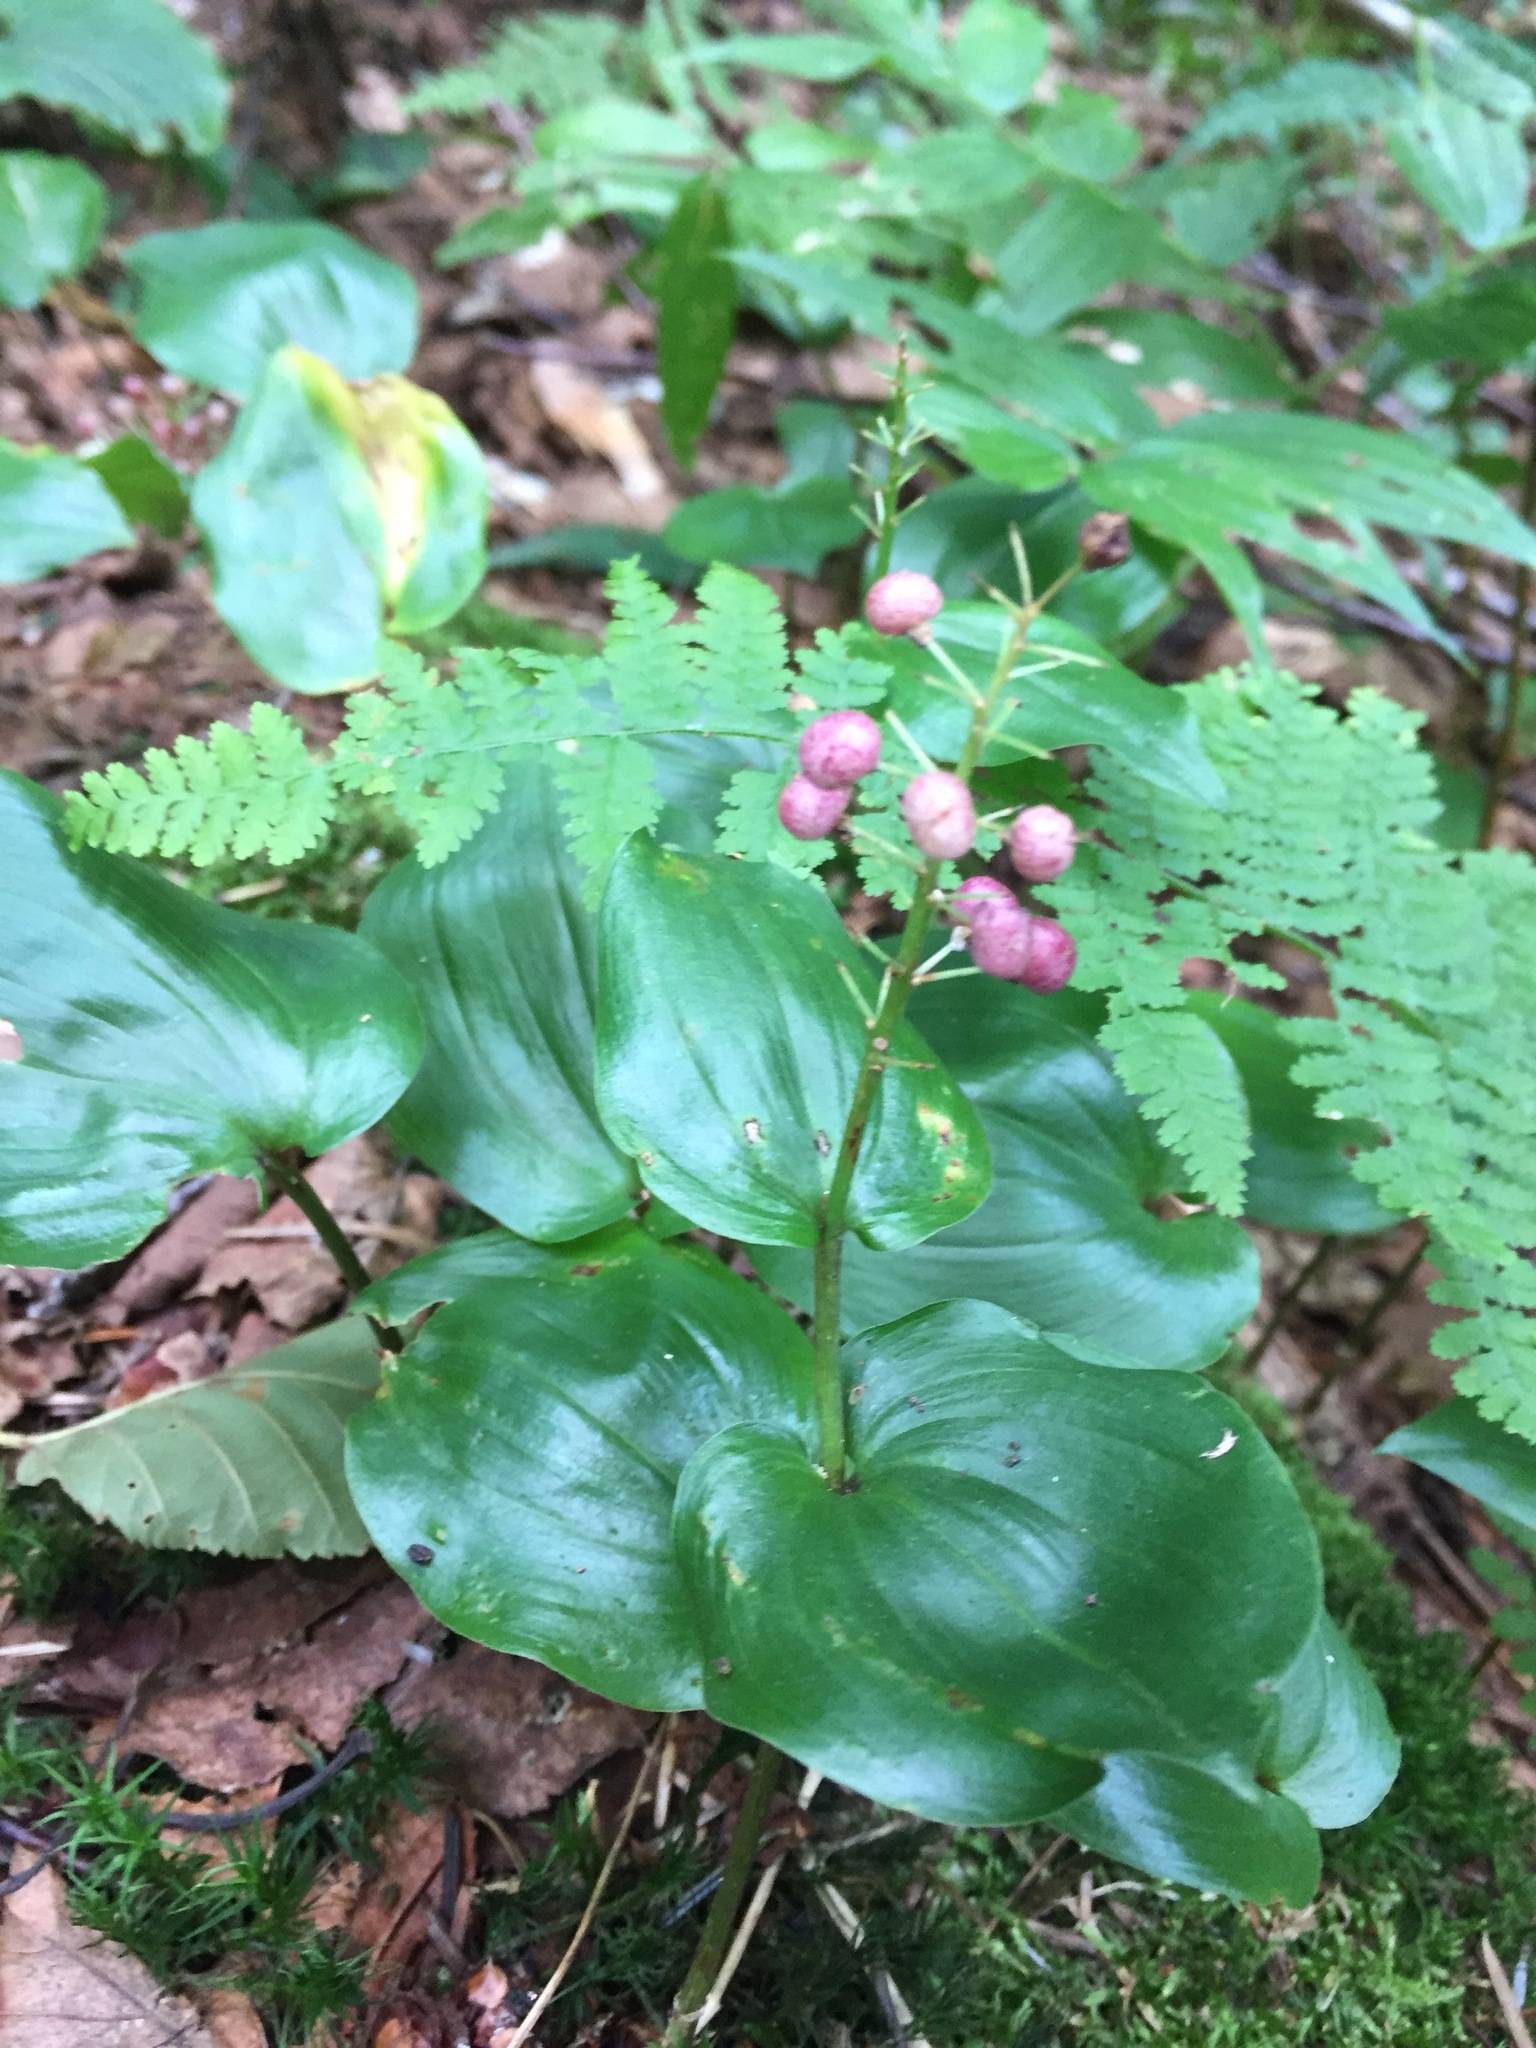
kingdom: Plantae
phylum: Tracheophyta
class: Liliopsida
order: Asparagales
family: Asparagaceae
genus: Maianthemum
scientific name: Maianthemum canadense
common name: False lily-of-the-valley
